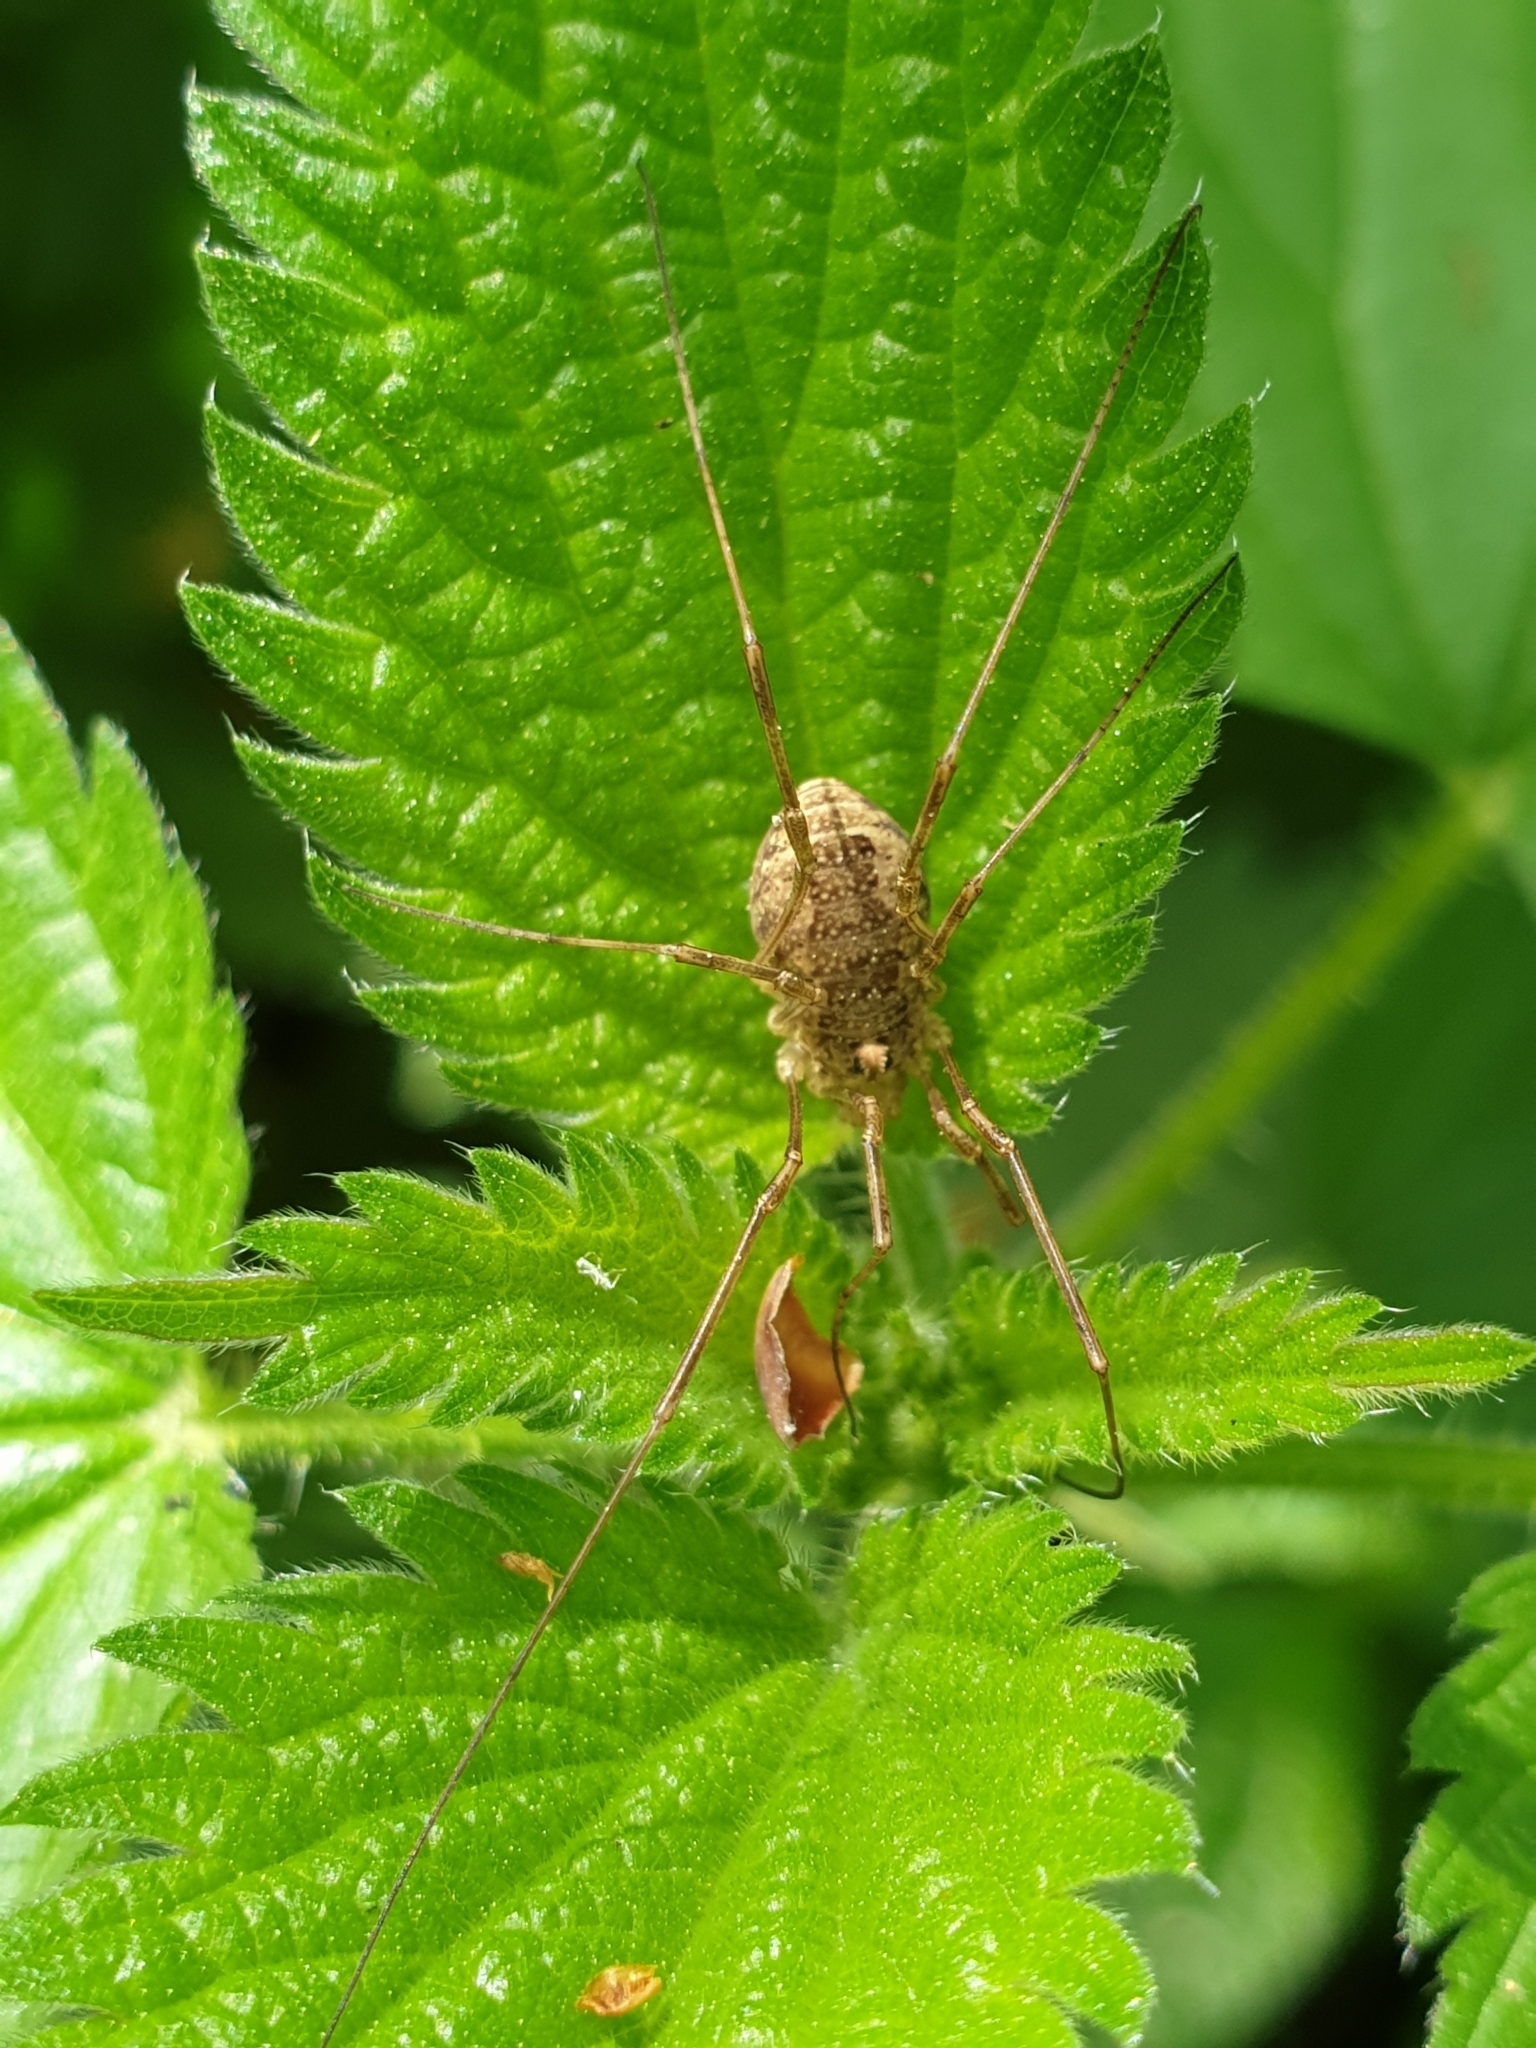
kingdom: Animalia
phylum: Arthropoda
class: Arachnida
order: Opiliones
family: Phalangiidae
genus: Rilaena
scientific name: Rilaena triangularis
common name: Spring harvestman
